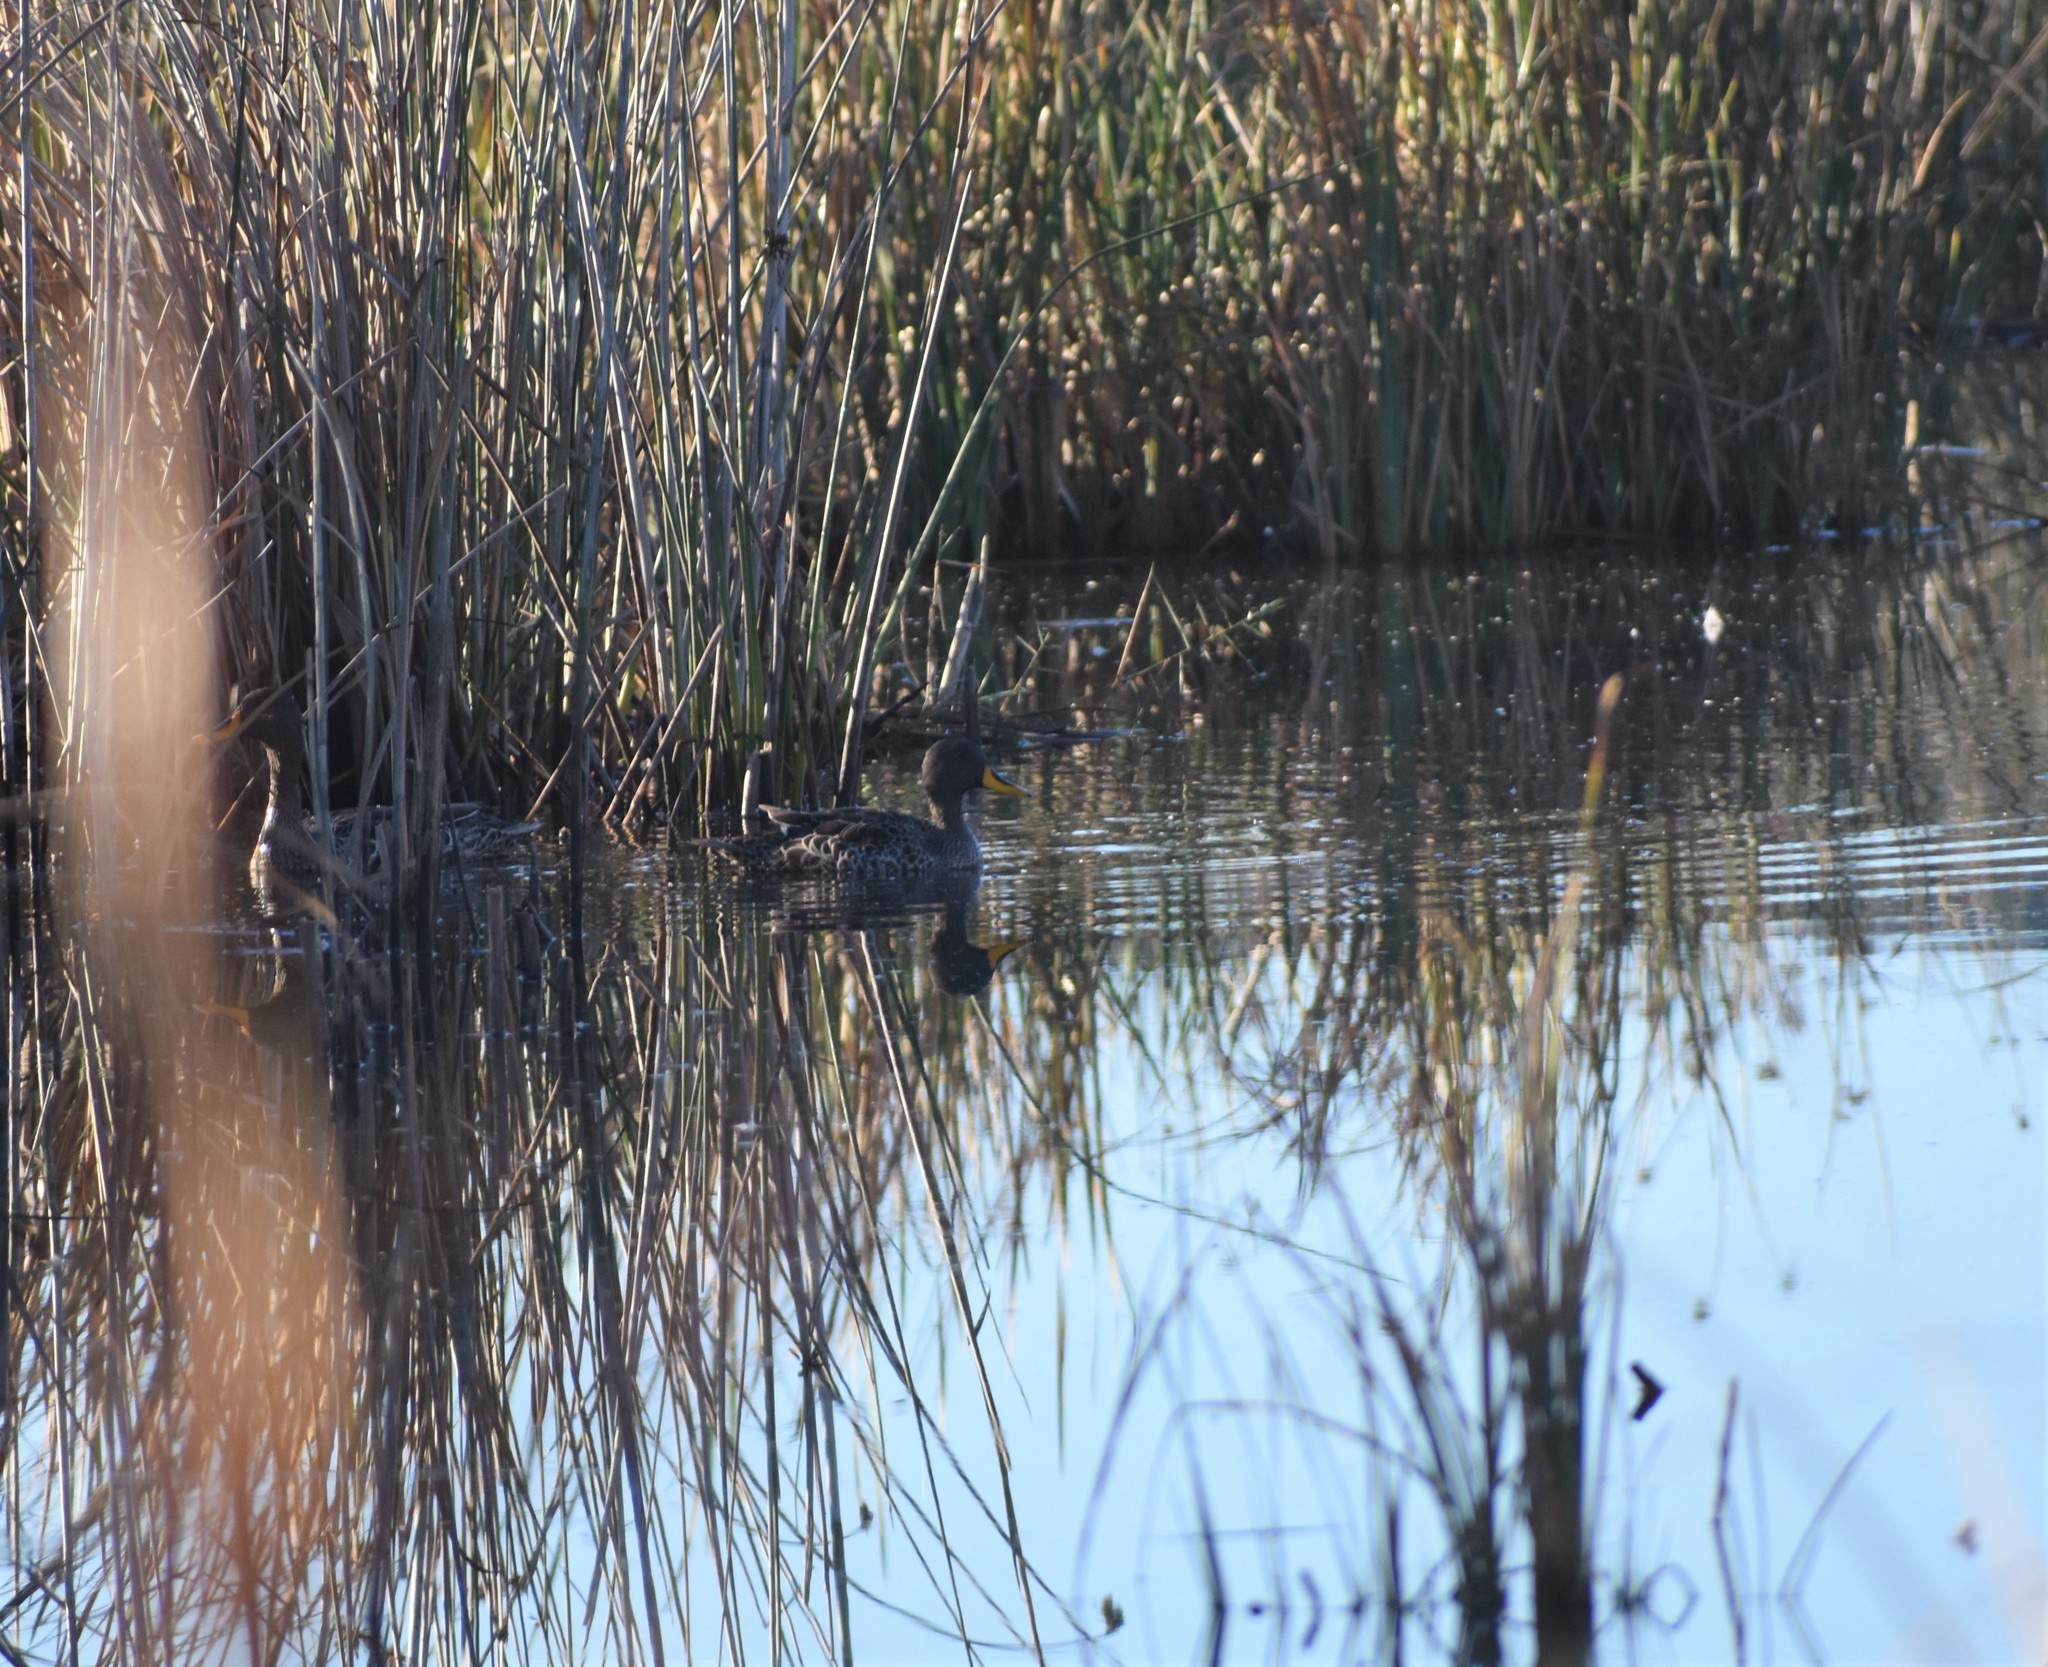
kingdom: Animalia
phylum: Chordata
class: Aves
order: Anseriformes
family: Anatidae
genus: Anas
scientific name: Anas undulata
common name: Yellow-billed duck
